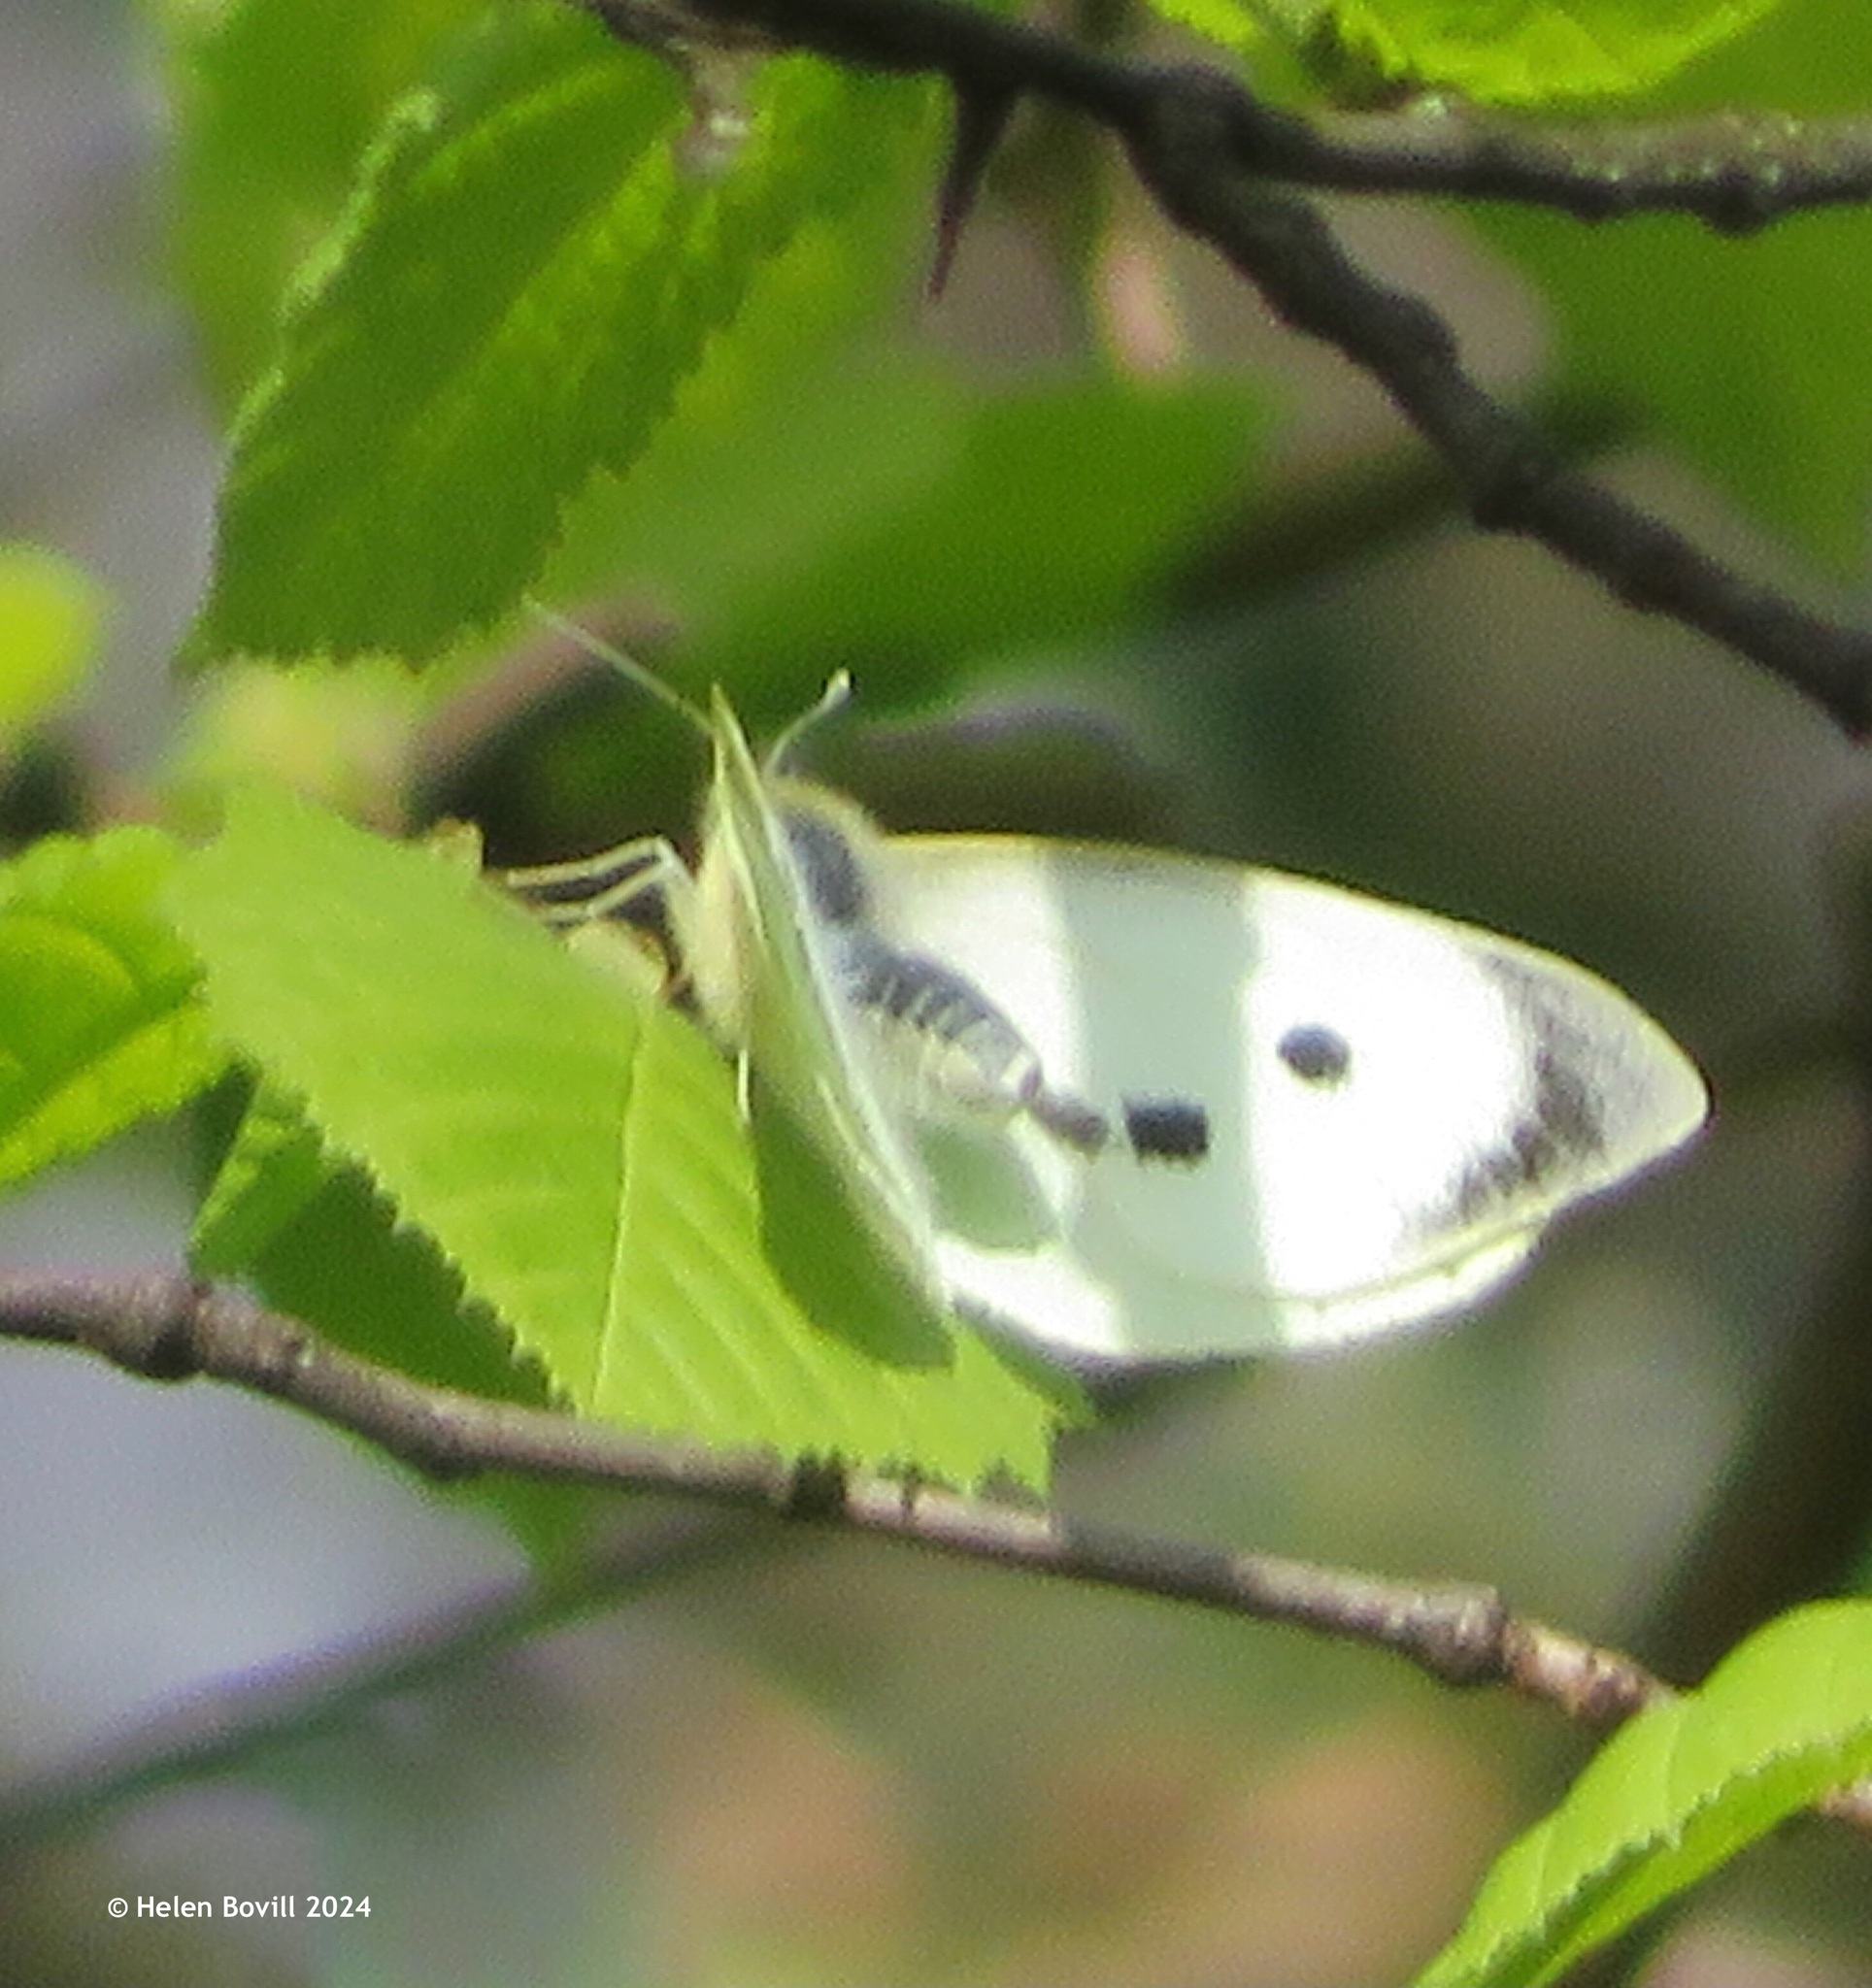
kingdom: Animalia
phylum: Arthropoda
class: Insecta
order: Lepidoptera
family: Pieridae
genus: Pieris
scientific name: Pieris brassicae
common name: Large white
